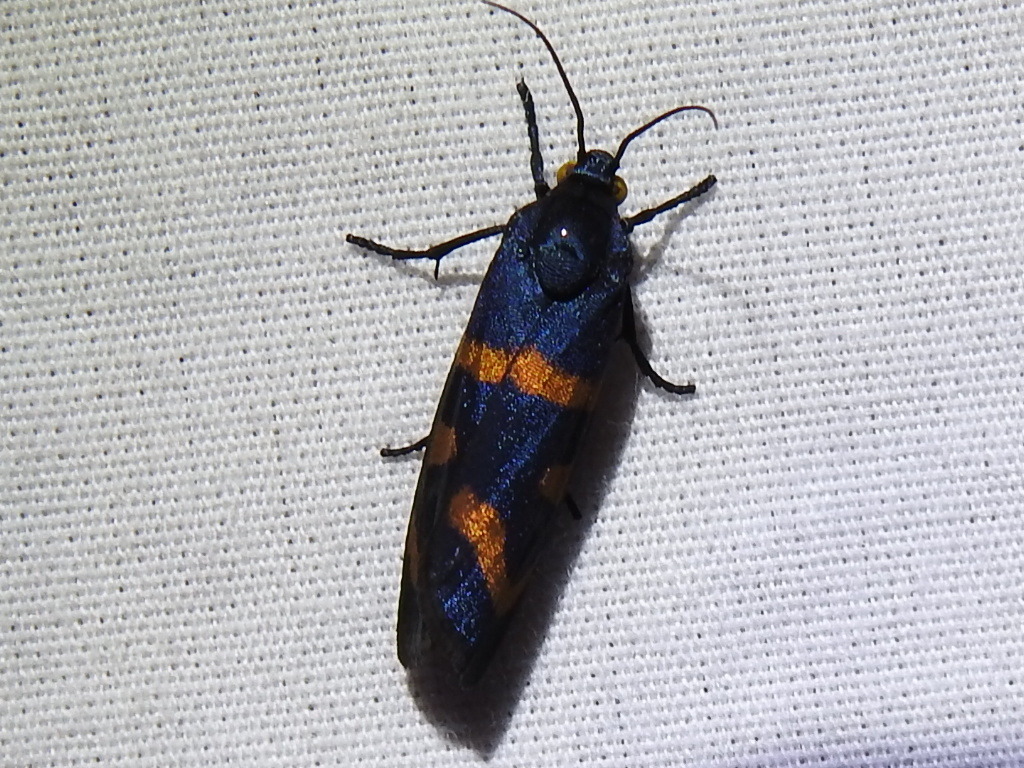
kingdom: Animalia
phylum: Arthropoda
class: Insecta
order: Lepidoptera
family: Noctuidae
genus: Cydosia
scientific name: Cydosia aurivitta
